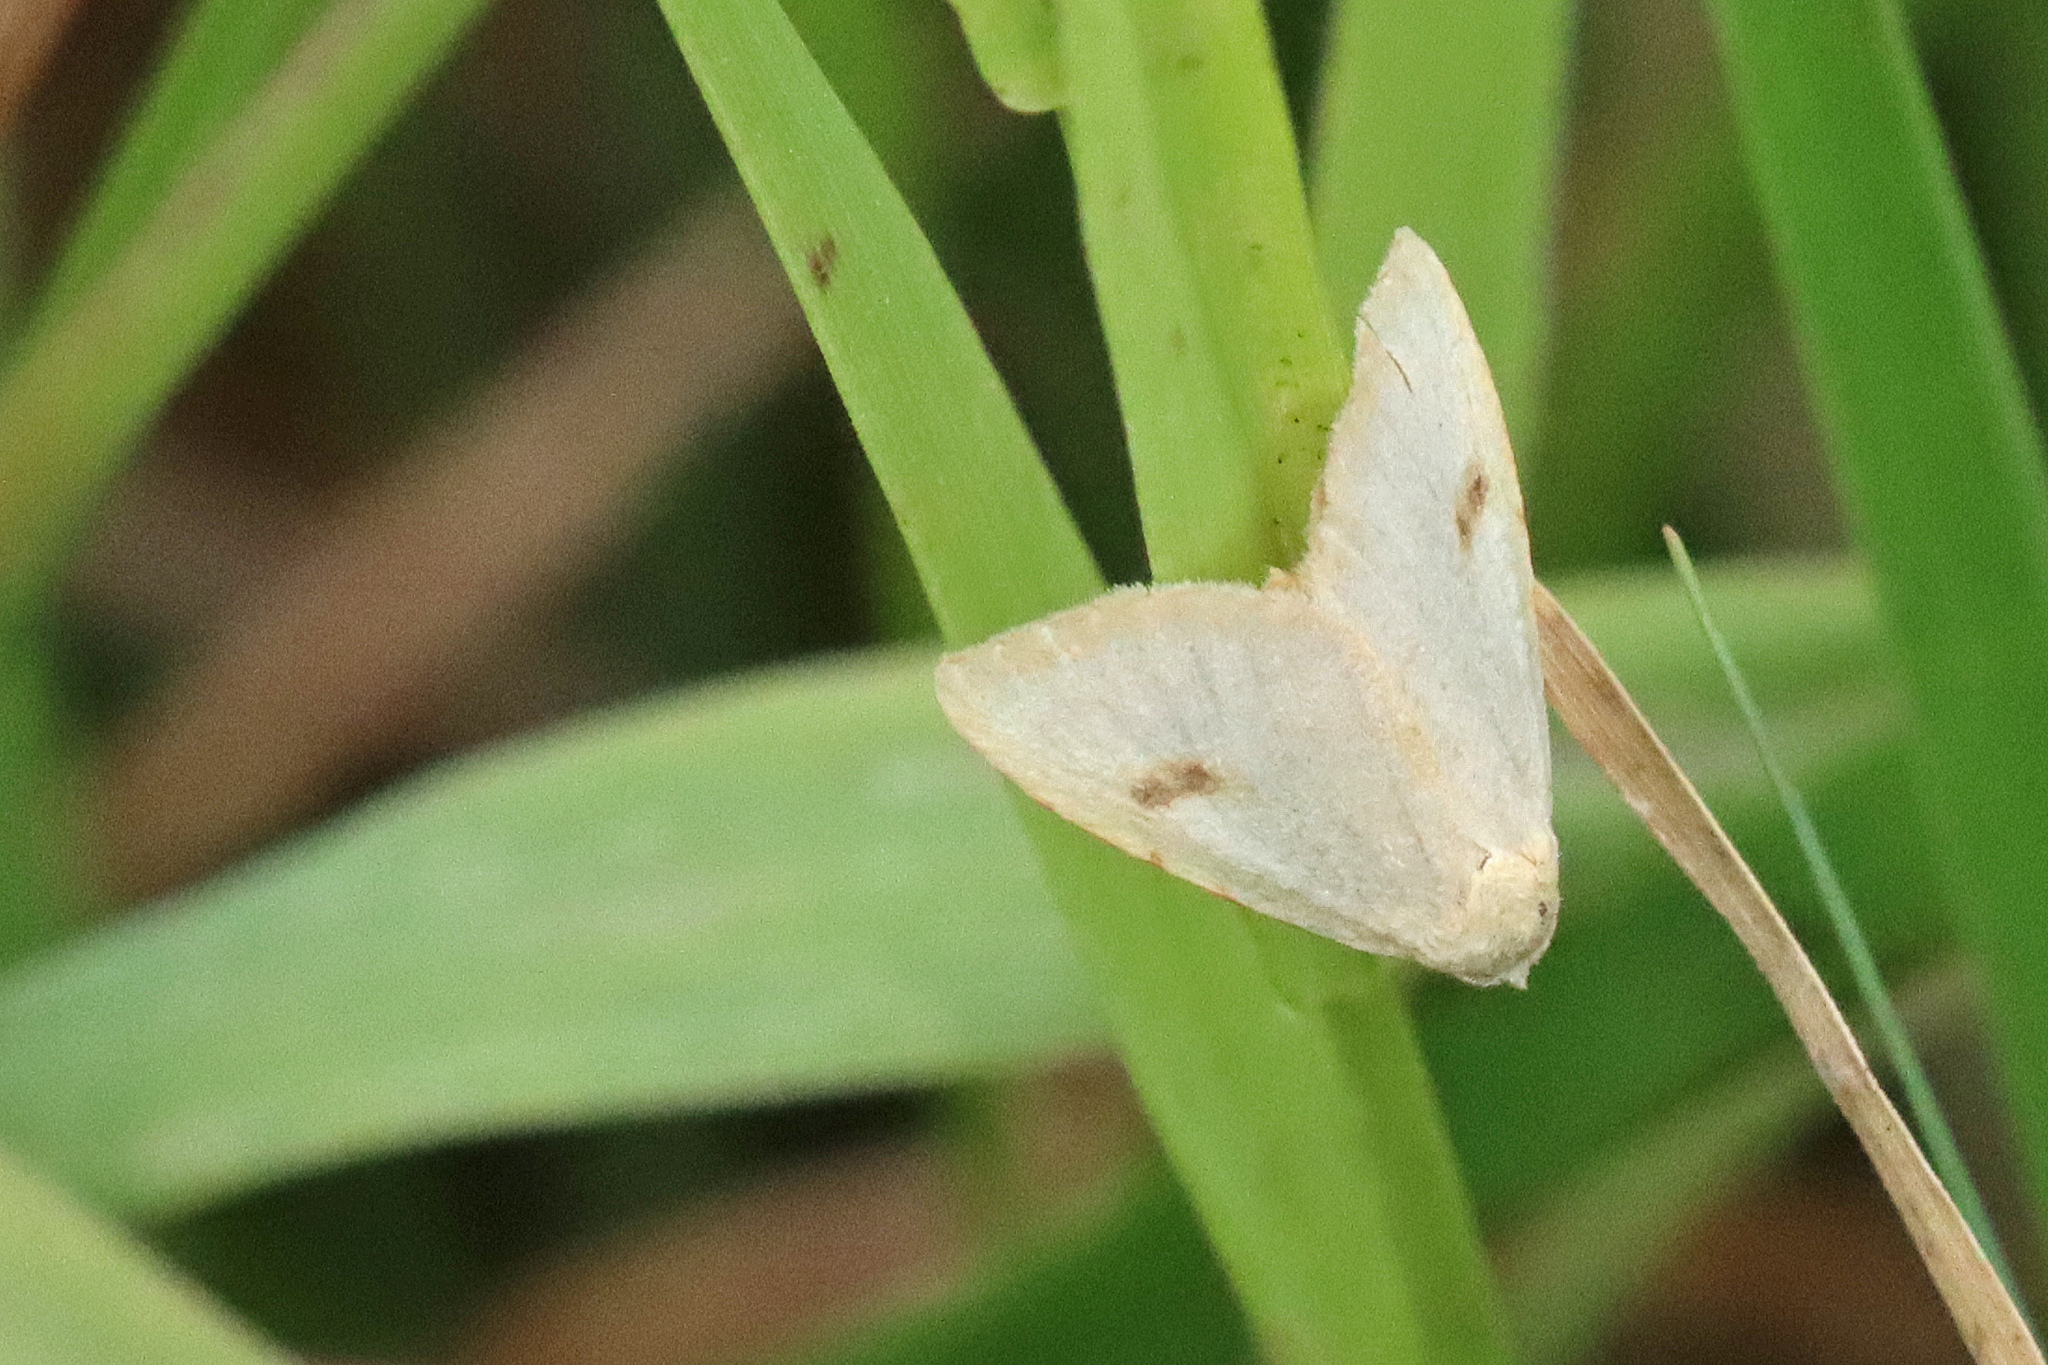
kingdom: Animalia
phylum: Arthropoda
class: Insecta
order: Lepidoptera
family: Erebidae
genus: Rivula
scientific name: Rivula sericealis
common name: Straw dot
